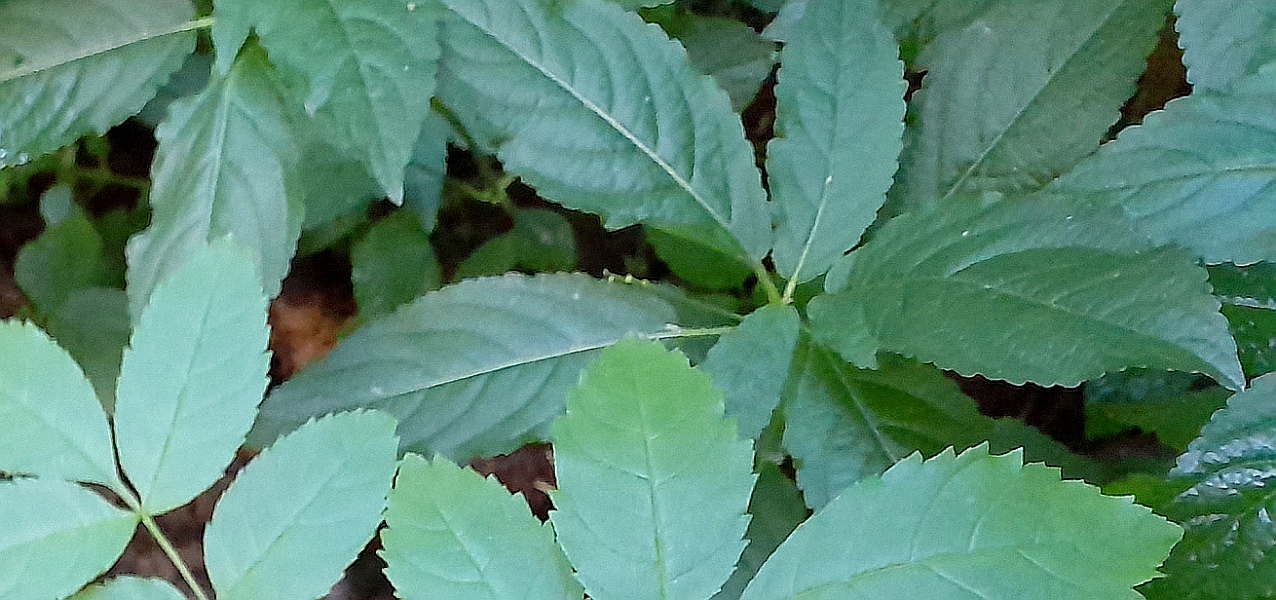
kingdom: Plantae
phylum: Tracheophyta
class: Magnoliopsida
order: Malpighiales
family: Euphorbiaceae
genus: Mercurialis
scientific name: Mercurialis perennis
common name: Dog mercury
